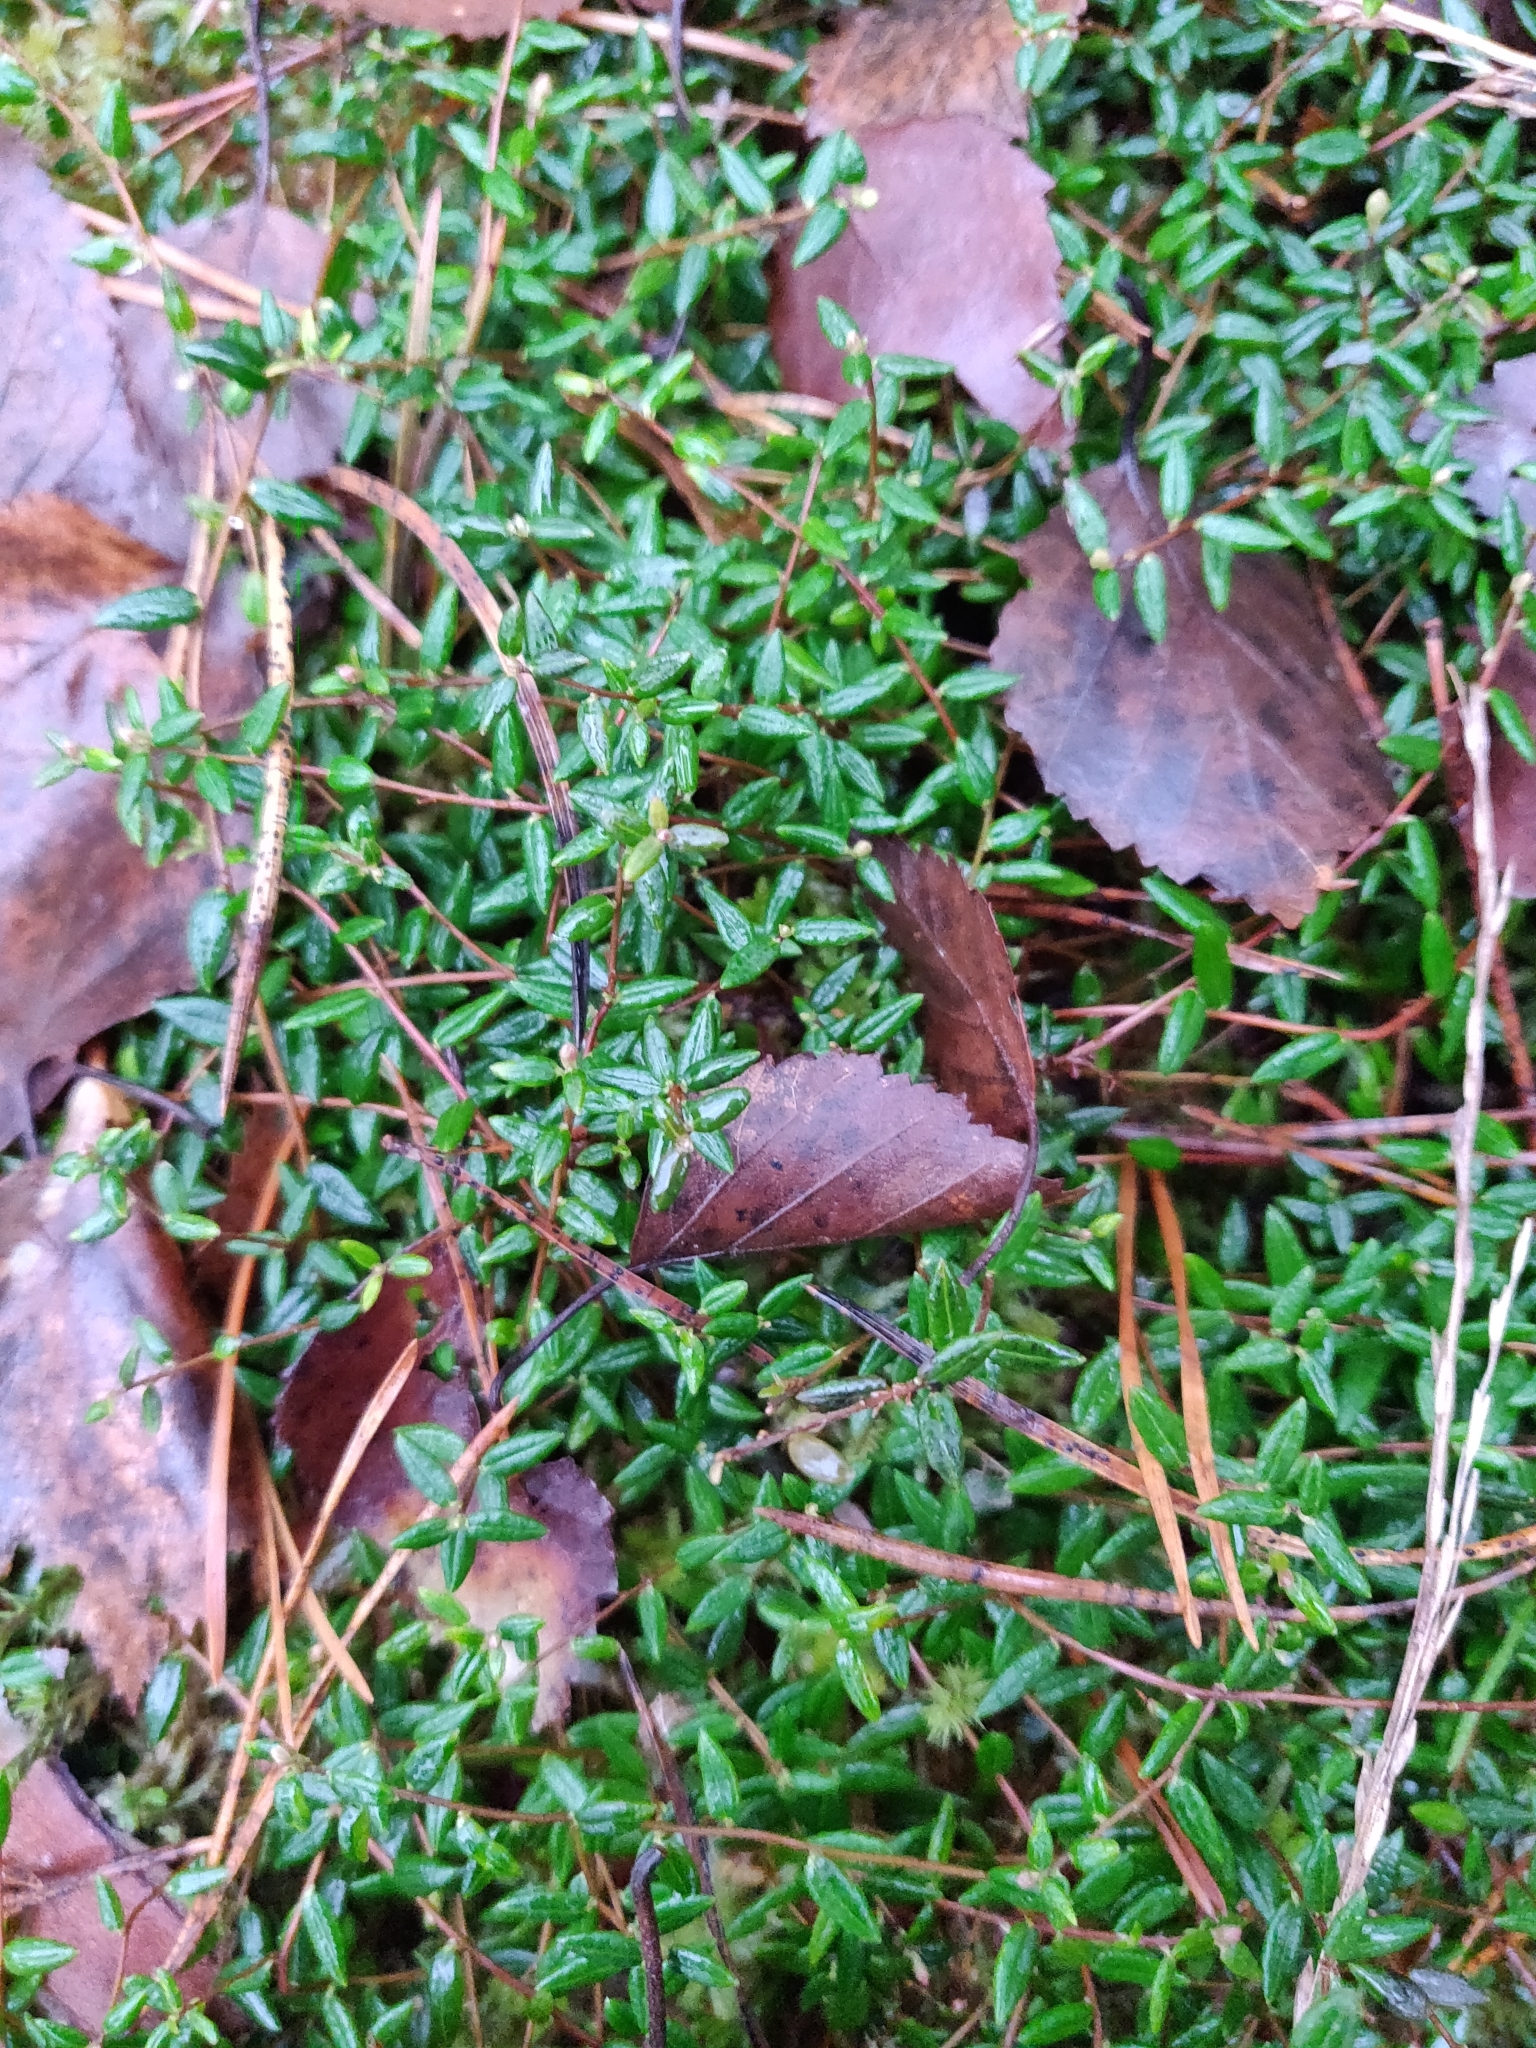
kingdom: Plantae
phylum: Tracheophyta
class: Magnoliopsida
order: Ericales
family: Ericaceae
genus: Vaccinium
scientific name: Vaccinium oxycoccos
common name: Cranberry
